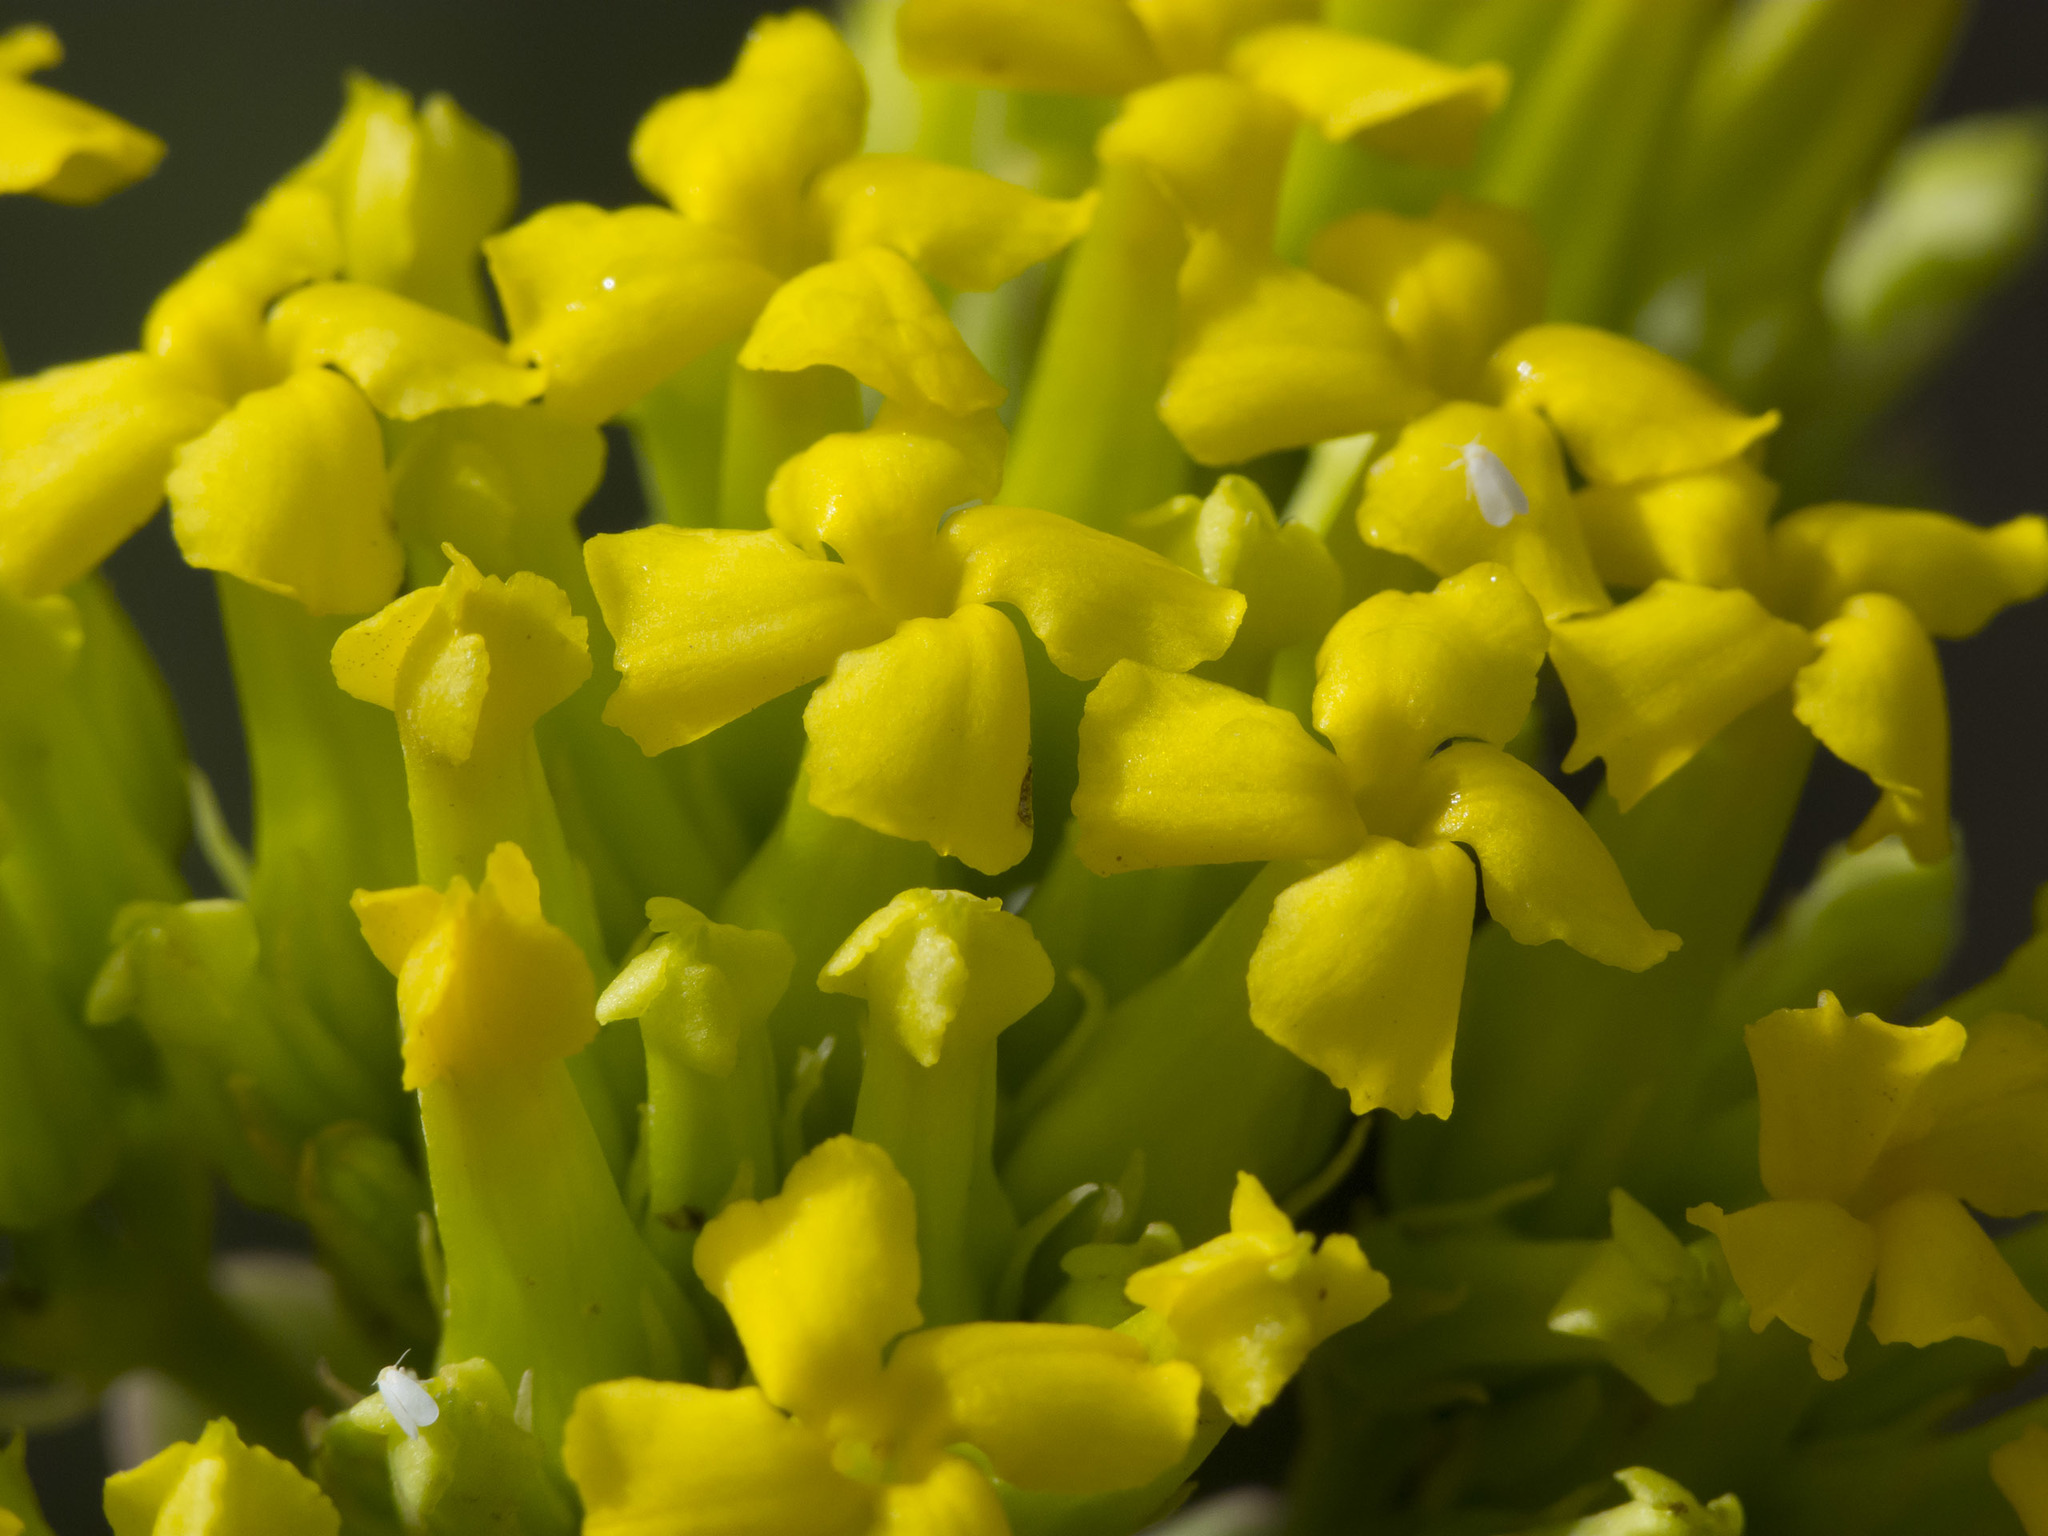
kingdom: Plantae
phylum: Tracheophyta
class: Magnoliopsida
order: Saxifragales
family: Crassulaceae
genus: Kalanchoe
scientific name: Kalanchoe densiflora
